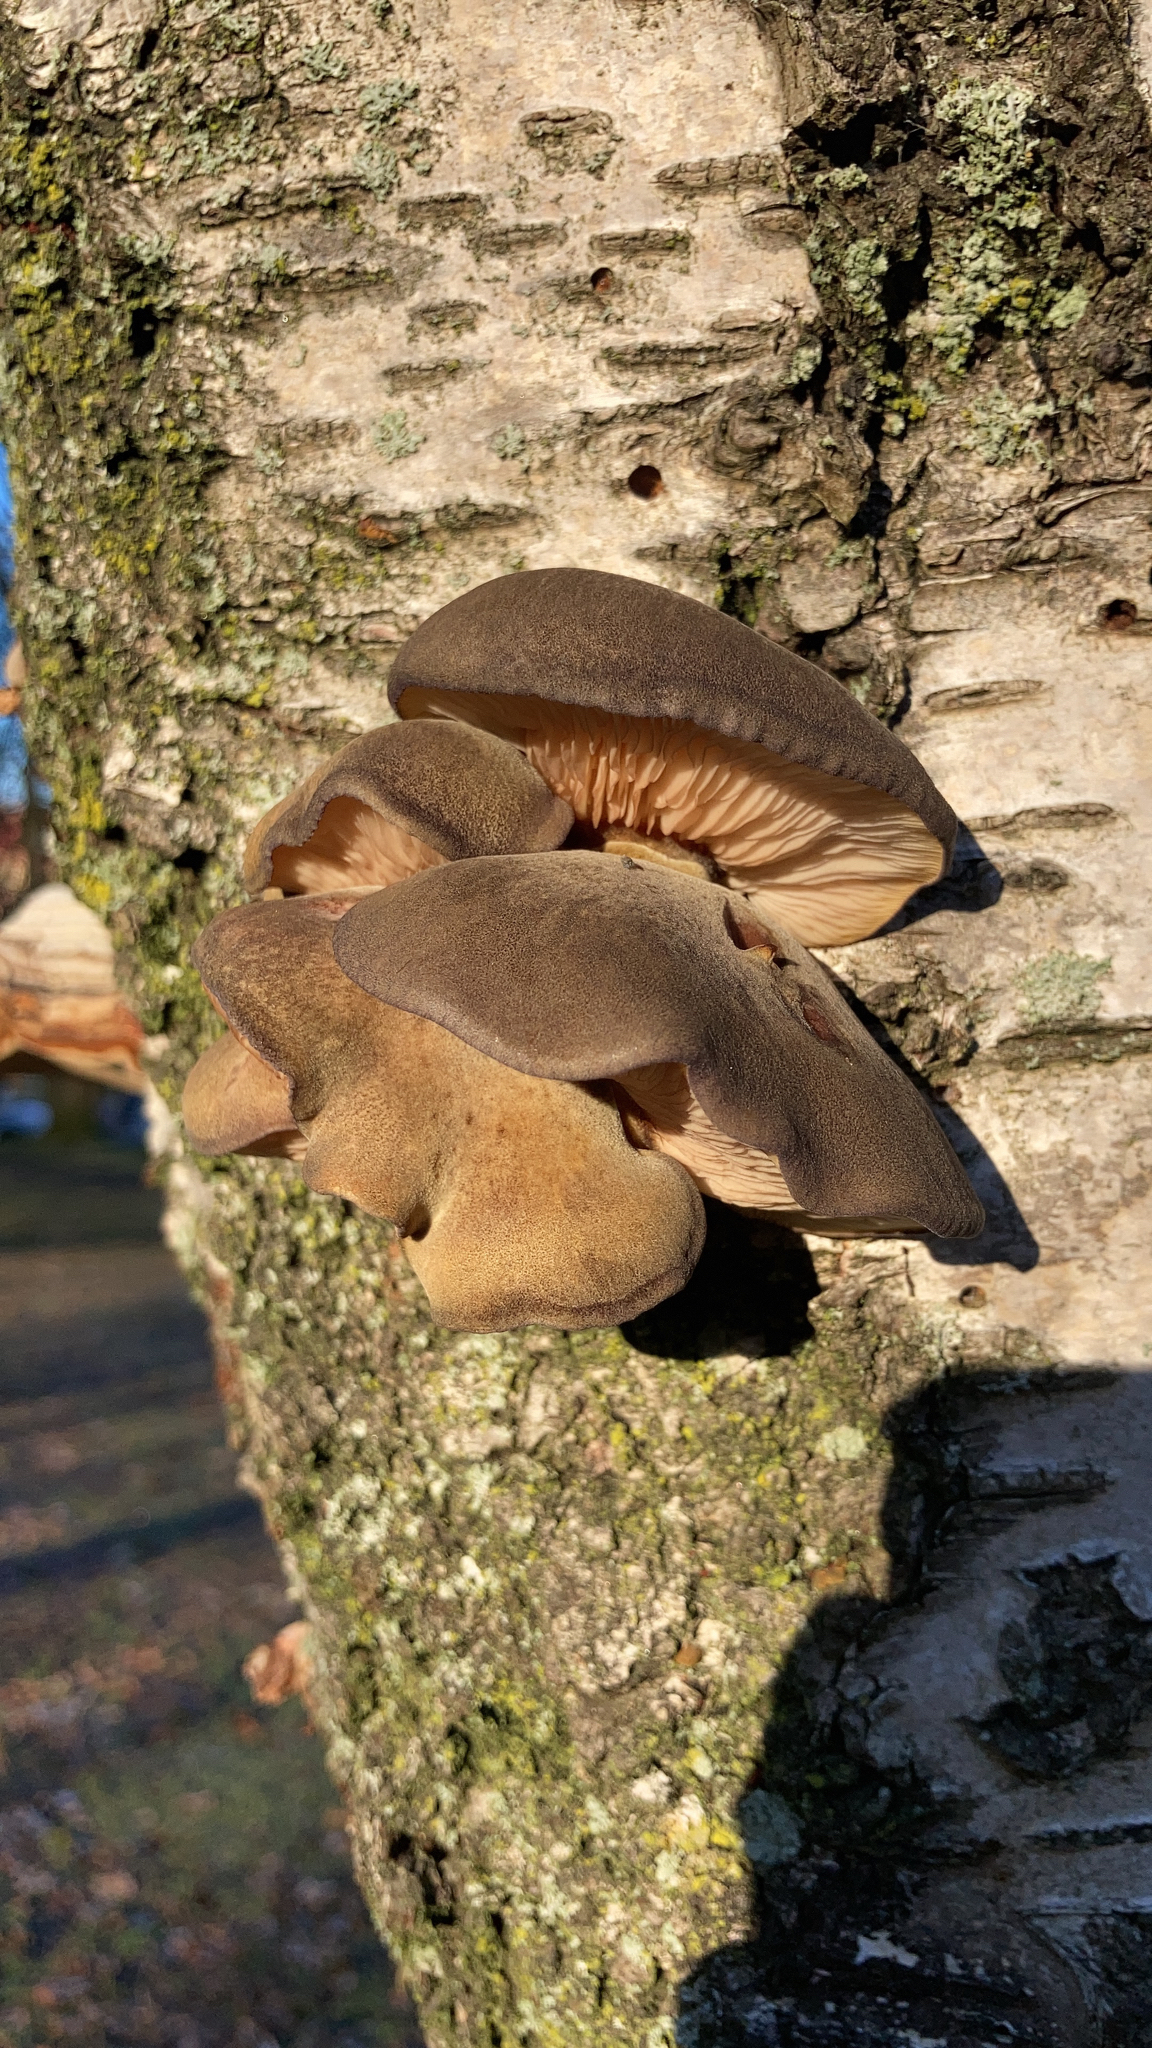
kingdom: Fungi
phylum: Basidiomycota
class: Agaricomycetes
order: Agaricales
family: Sarcomyxaceae
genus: Sarcomyxa
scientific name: Sarcomyxa serotina
